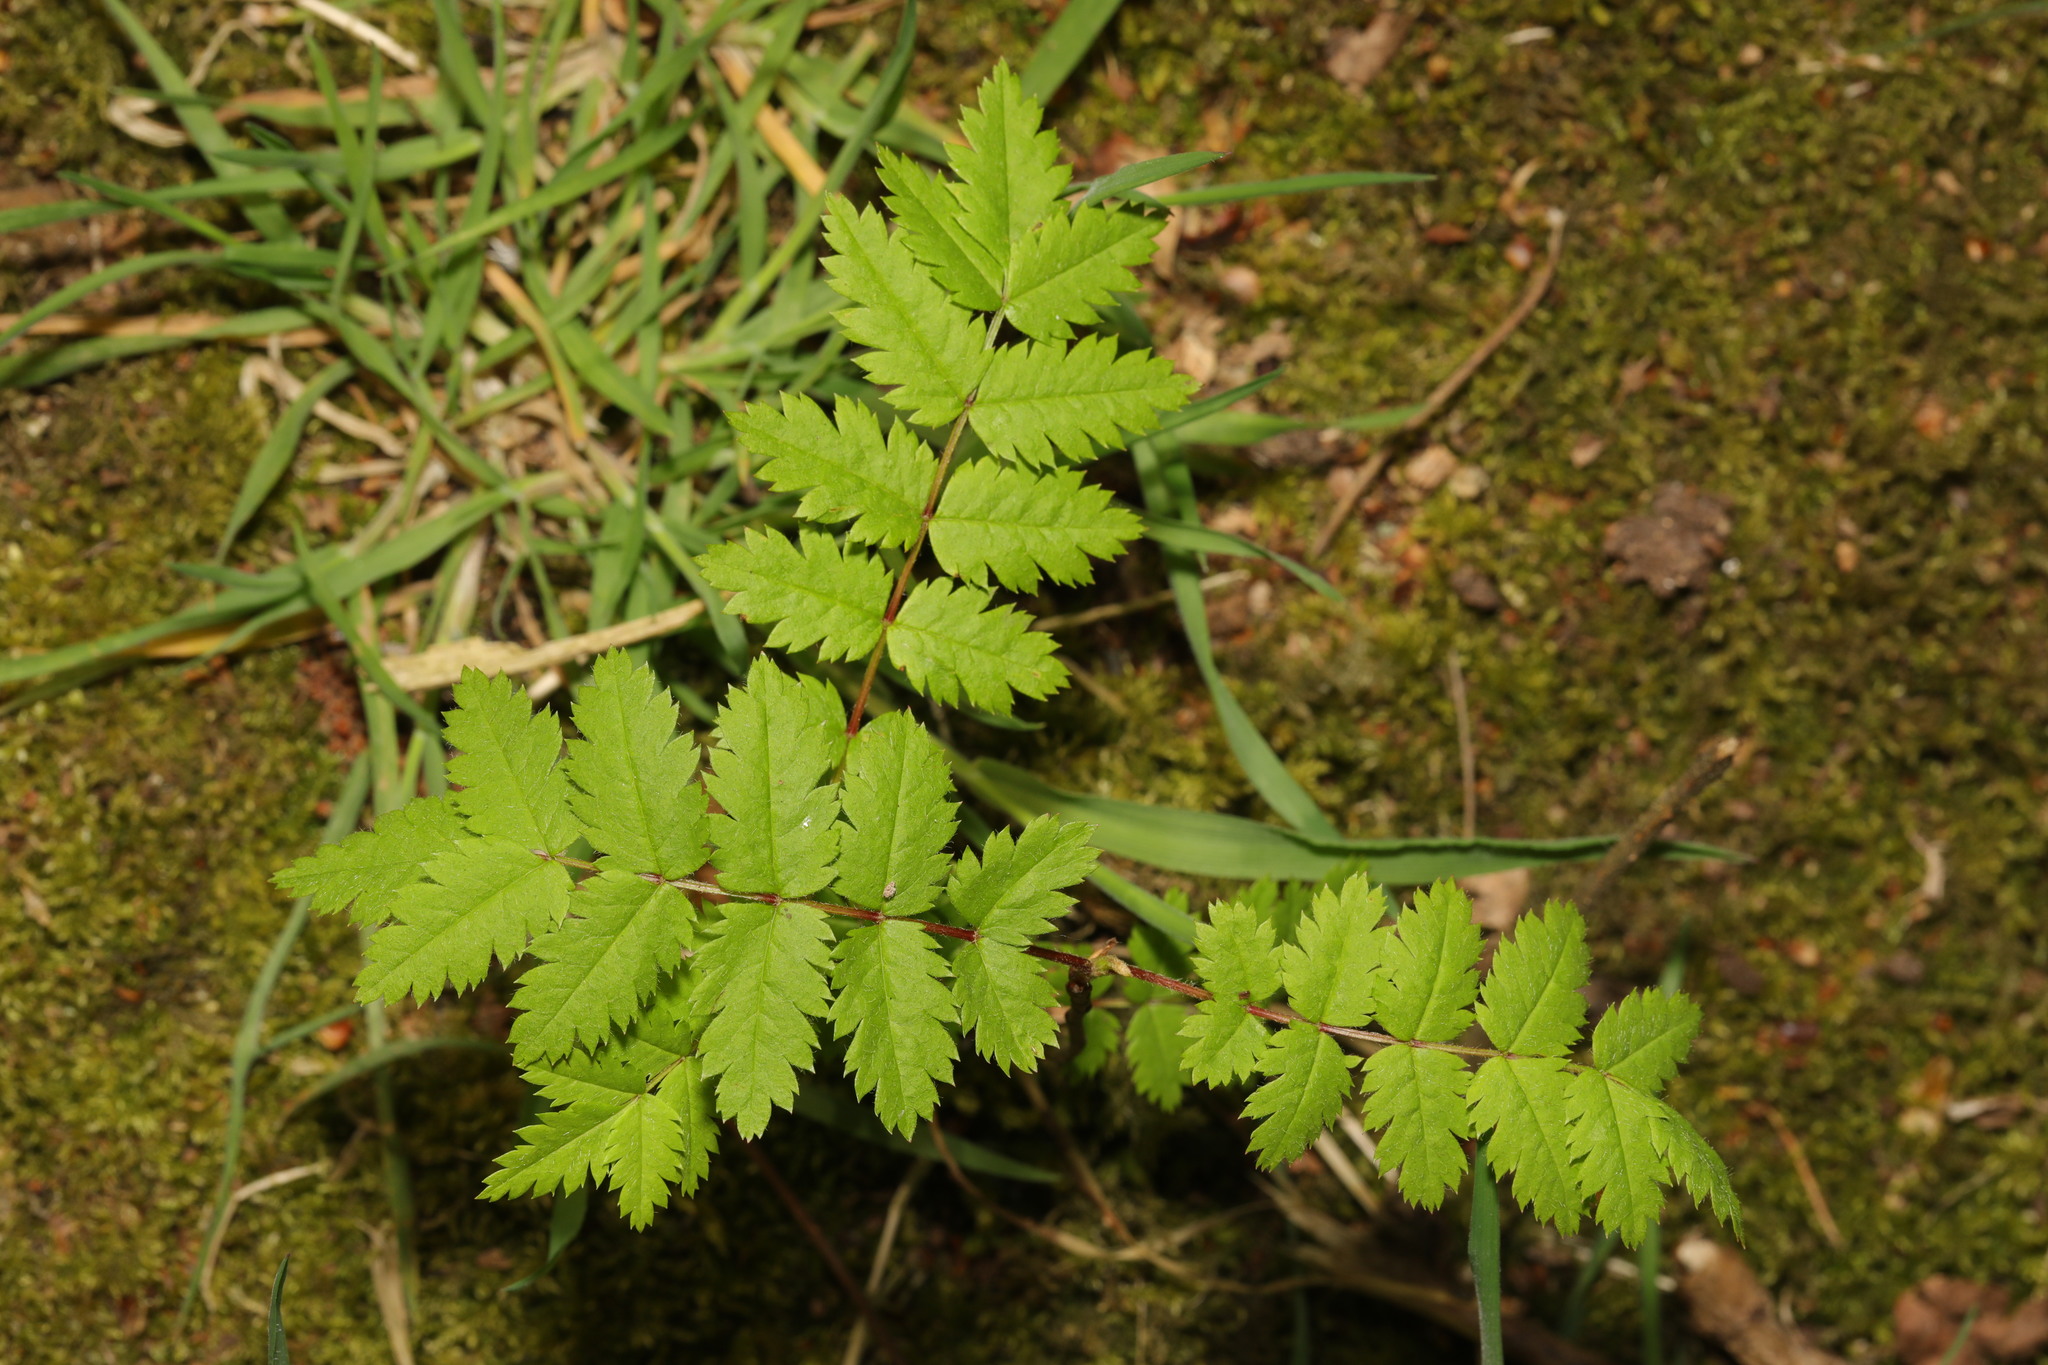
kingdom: Plantae
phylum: Tracheophyta
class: Magnoliopsida
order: Rosales
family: Rosaceae
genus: Sorbus
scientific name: Sorbus aucuparia
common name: Rowan
